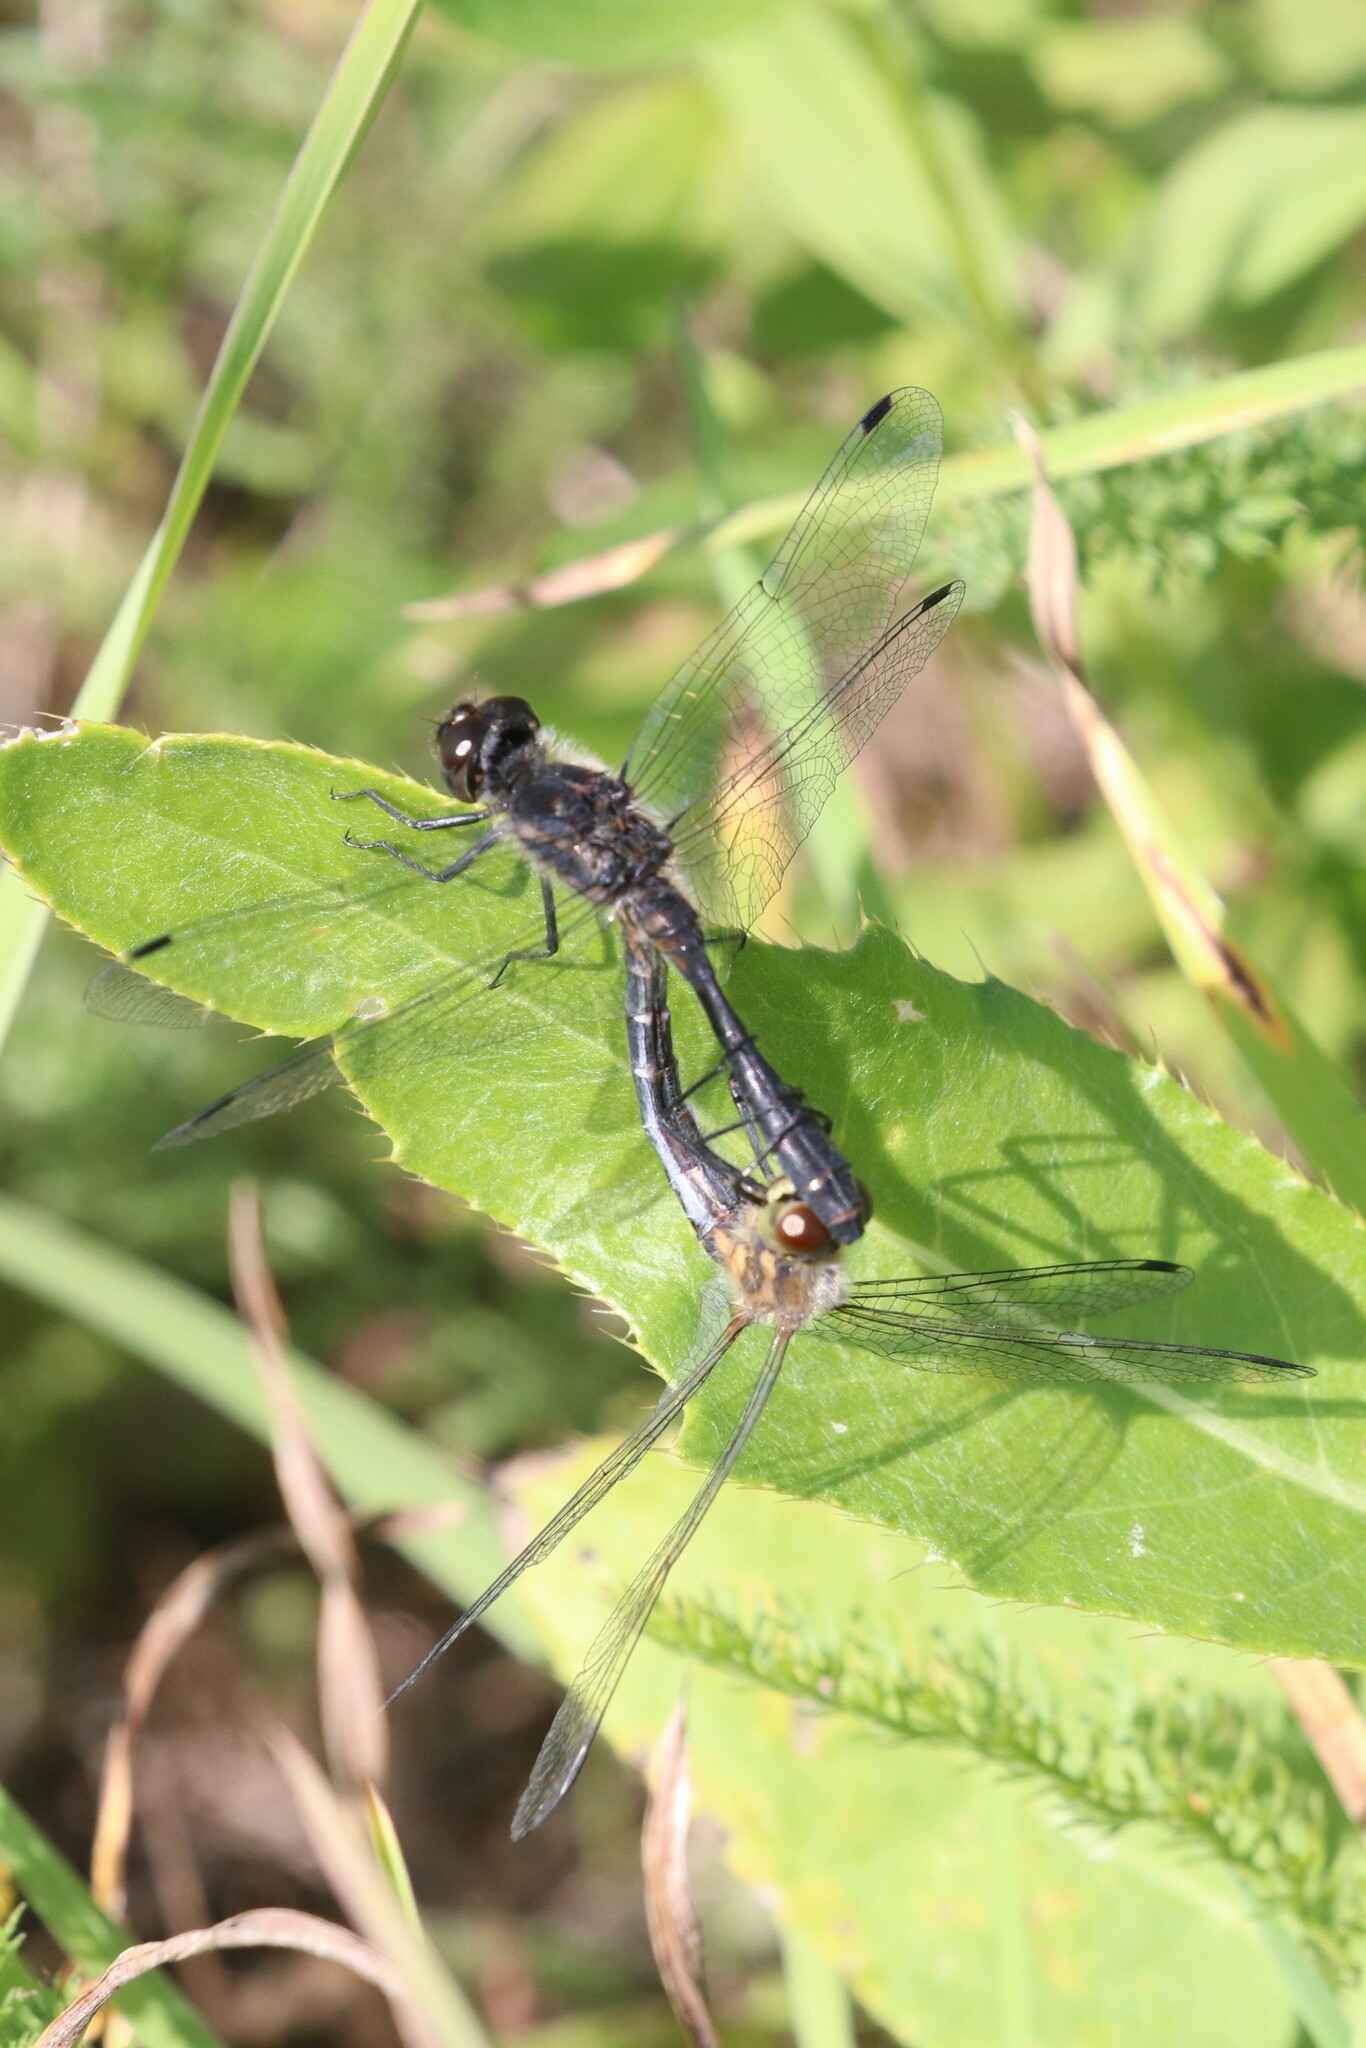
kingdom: Animalia
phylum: Arthropoda
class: Insecta
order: Odonata
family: Libellulidae
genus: Sympetrum
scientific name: Sympetrum danae
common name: Black darter
